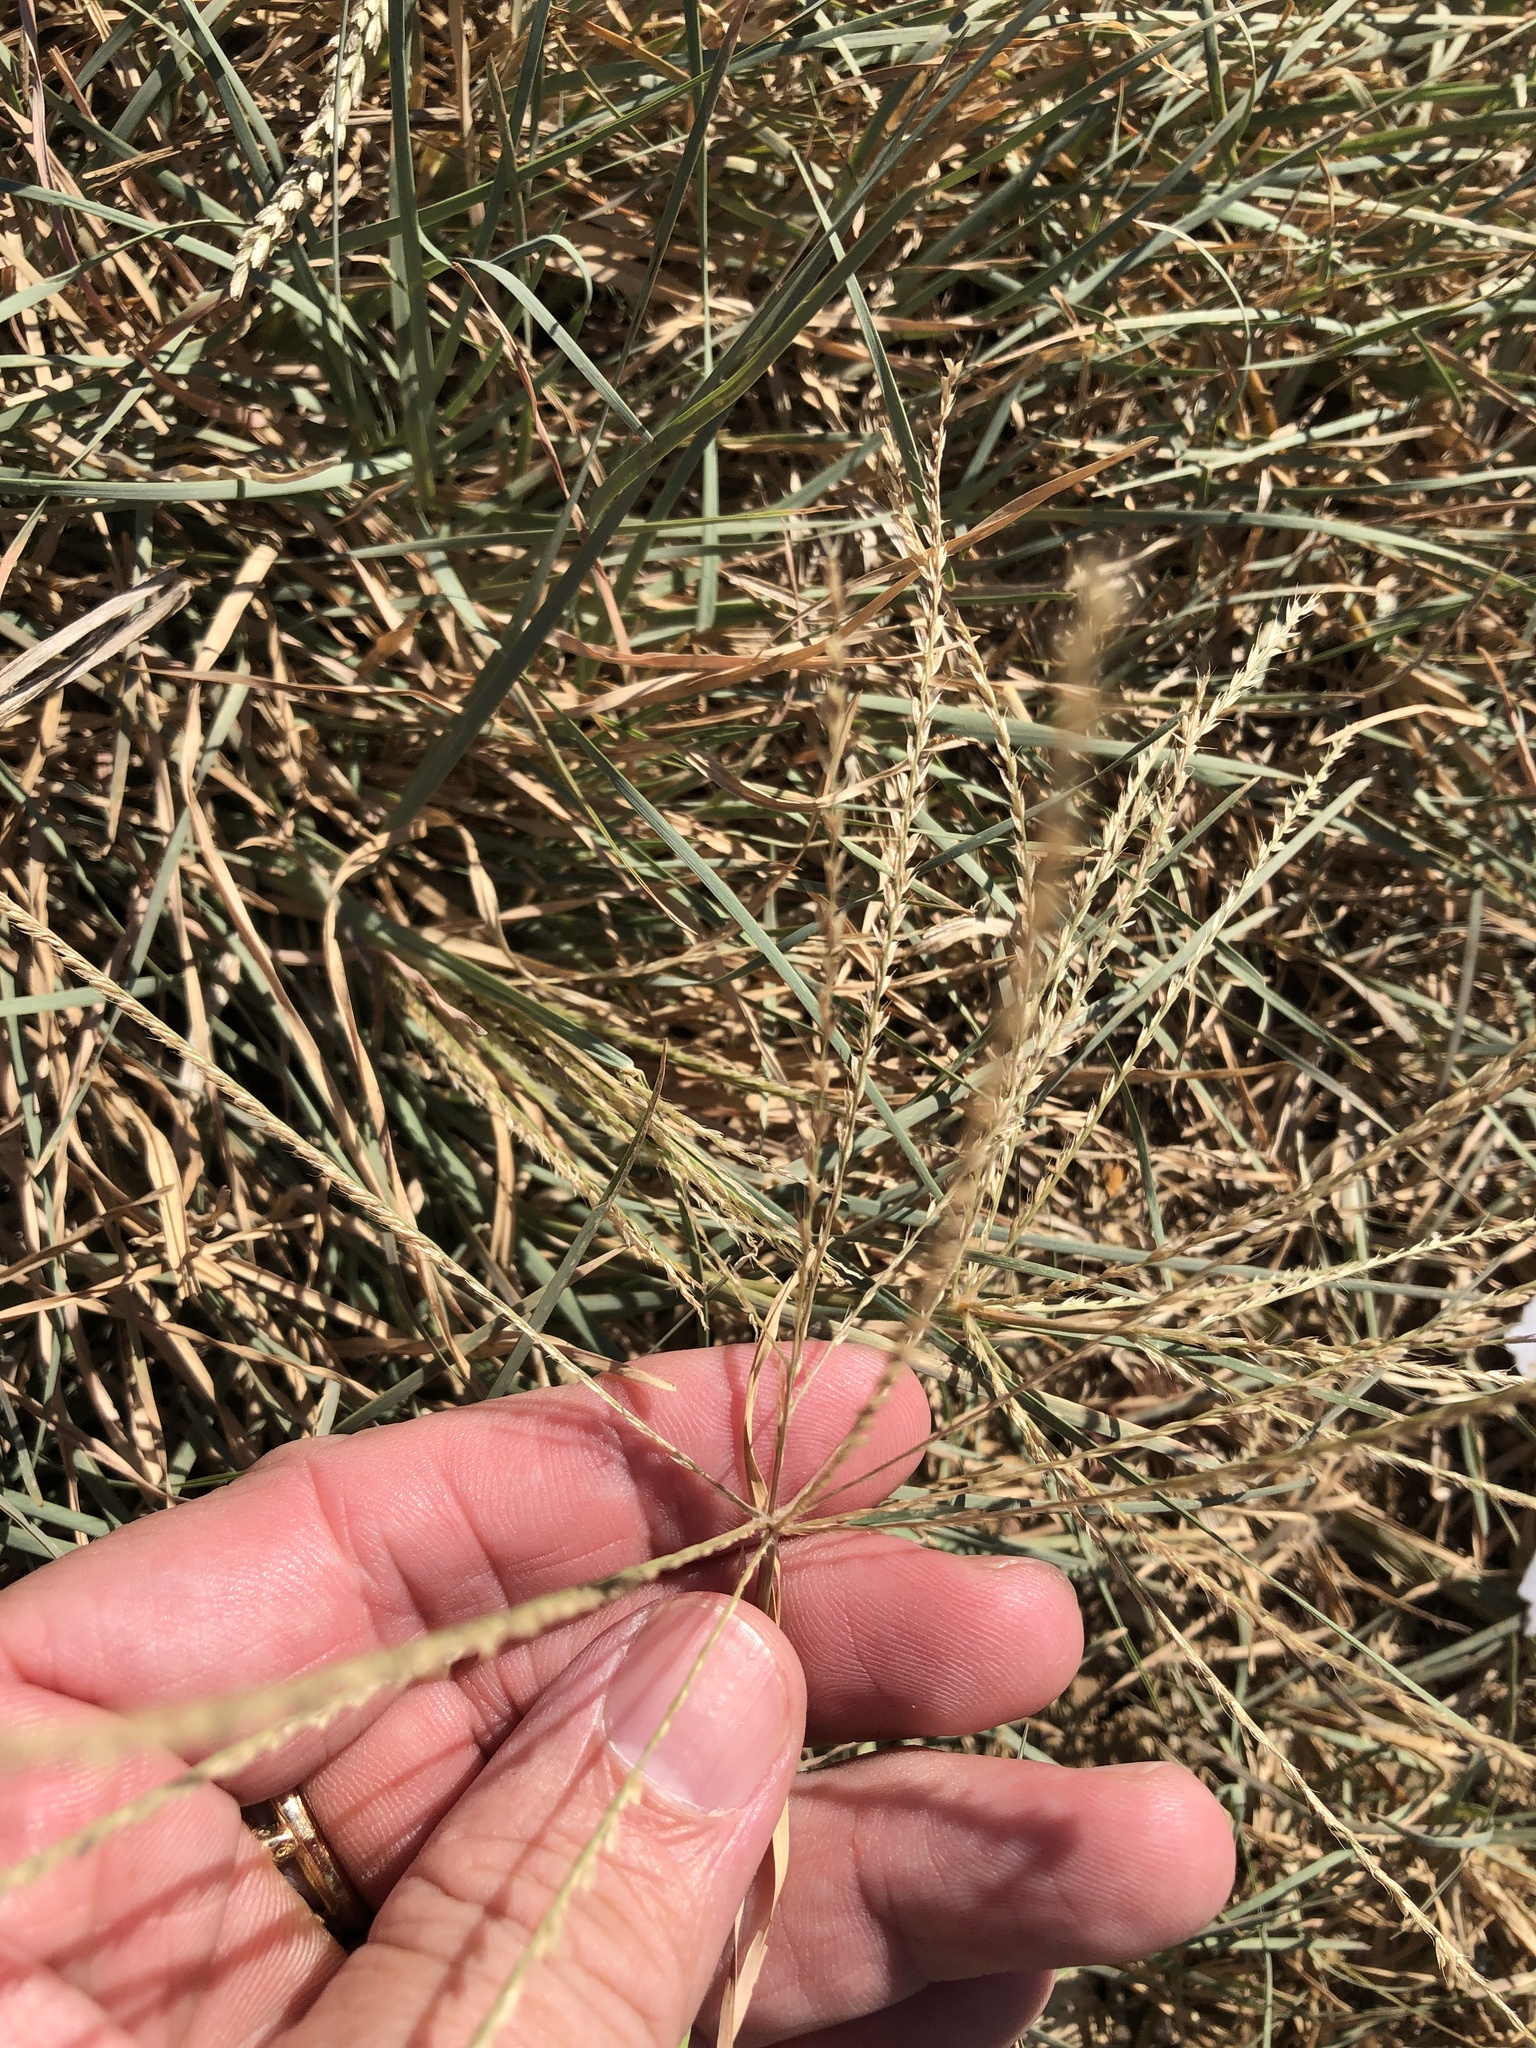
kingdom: Plantae
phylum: Tracheophyta
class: Liliopsida
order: Poales
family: Poaceae
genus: Chloris
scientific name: Chloris verticillata
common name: Tumble windmill grass
